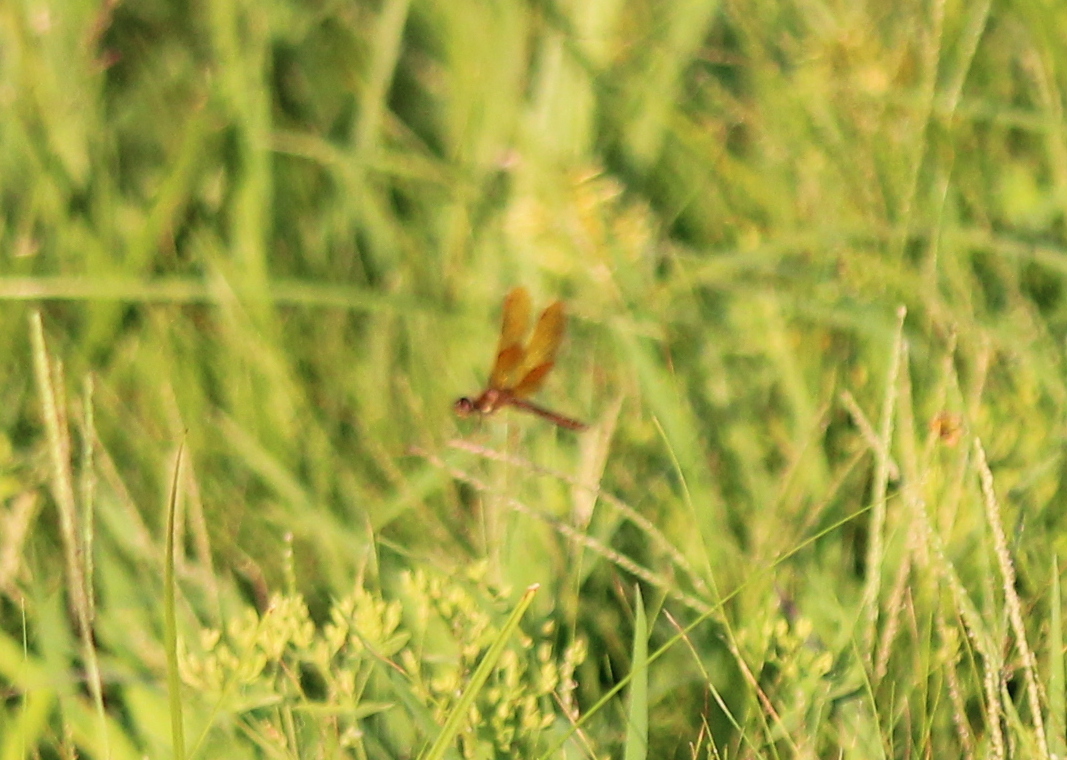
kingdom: Animalia
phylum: Arthropoda
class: Insecta
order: Odonata
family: Libellulidae
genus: Perithemis
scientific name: Perithemis tenera
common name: Eastern amberwing
